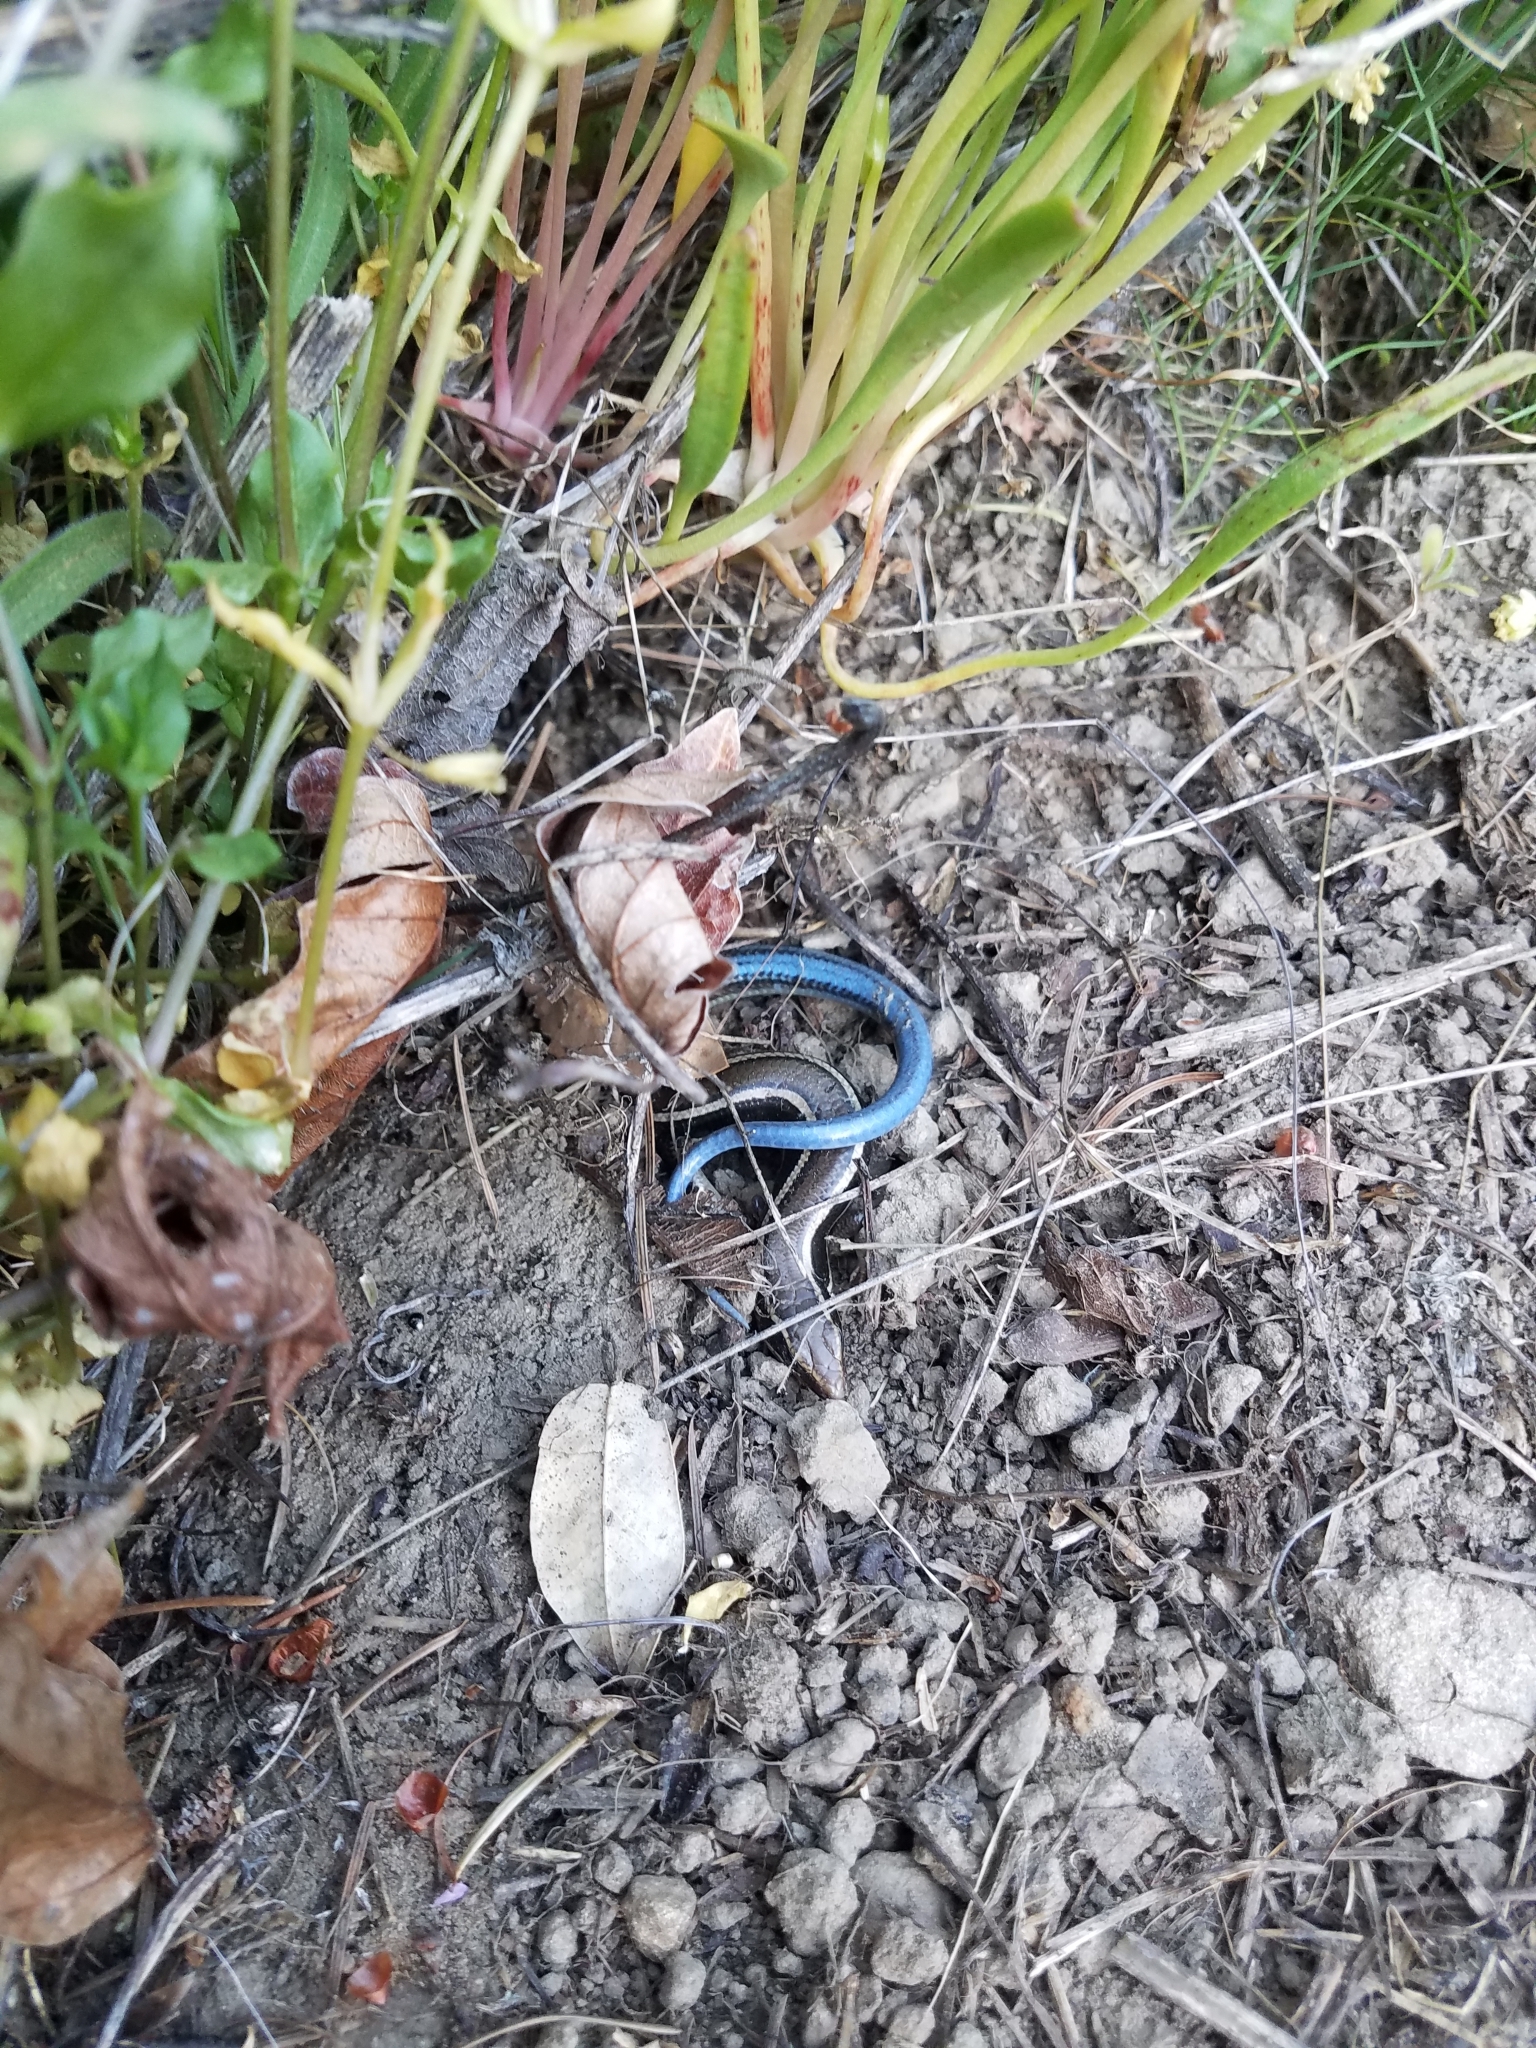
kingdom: Animalia
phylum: Chordata
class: Squamata
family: Scincidae
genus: Plestiodon
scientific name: Plestiodon skiltonianus
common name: Coronado island skink [interparietalis]
